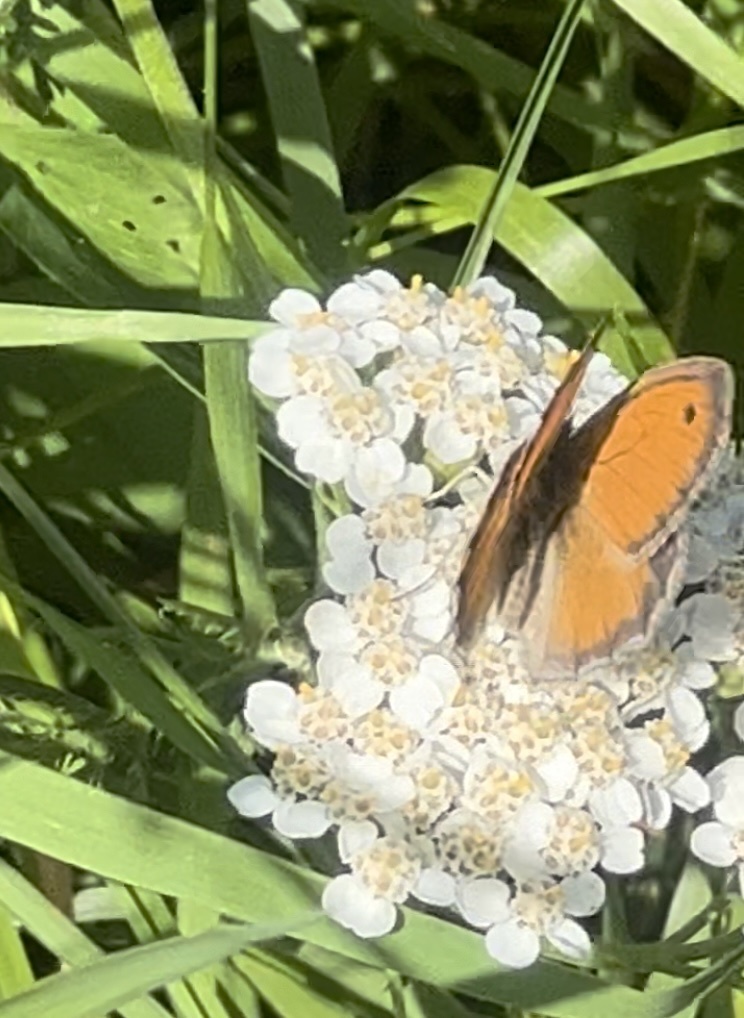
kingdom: Animalia
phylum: Arthropoda
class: Insecta
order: Lepidoptera
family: Nymphalidae
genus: Coenonympha
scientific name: Coenonympha pamphilus
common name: Small heath
